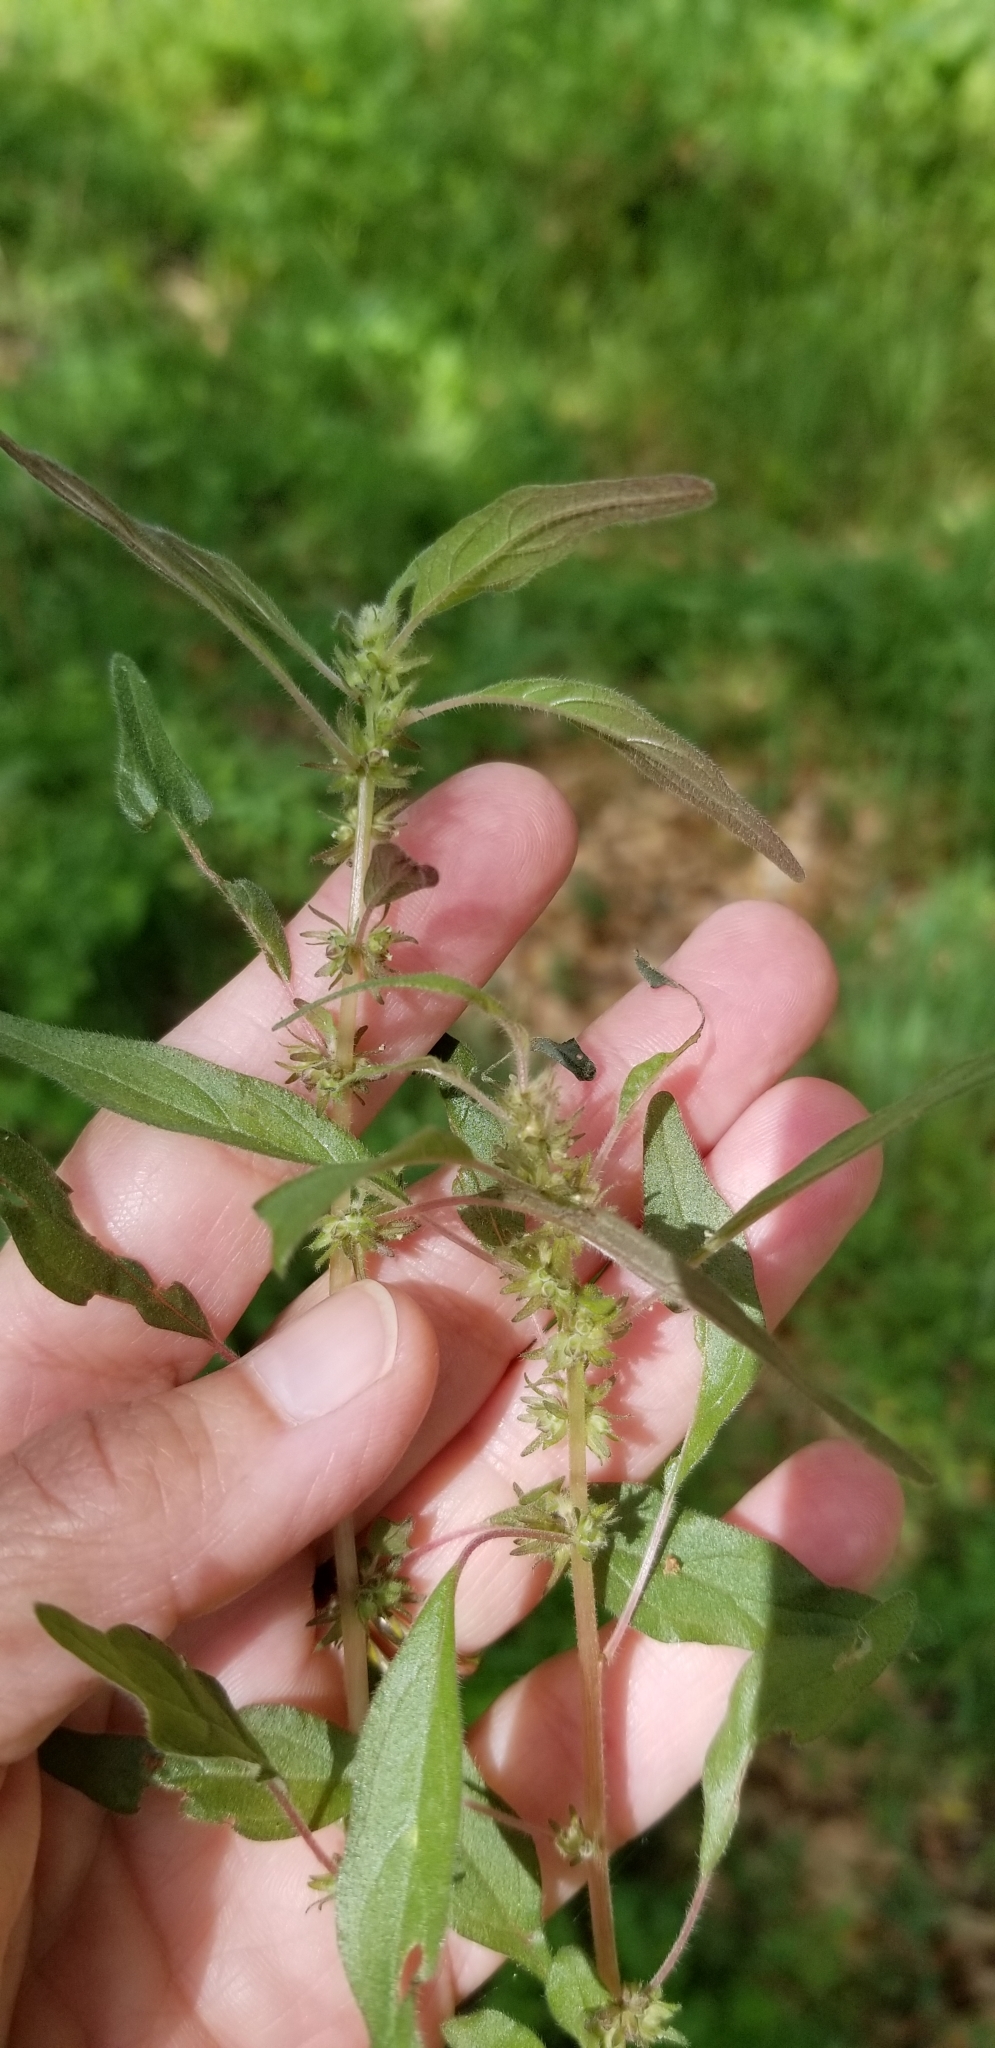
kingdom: Plantae
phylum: Tracheophyta
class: Magnoliopsida
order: Rosales
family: Urticaceae
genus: Parietaria
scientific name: Parietaria pensylvanica
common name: Pennsylvania pellitory
